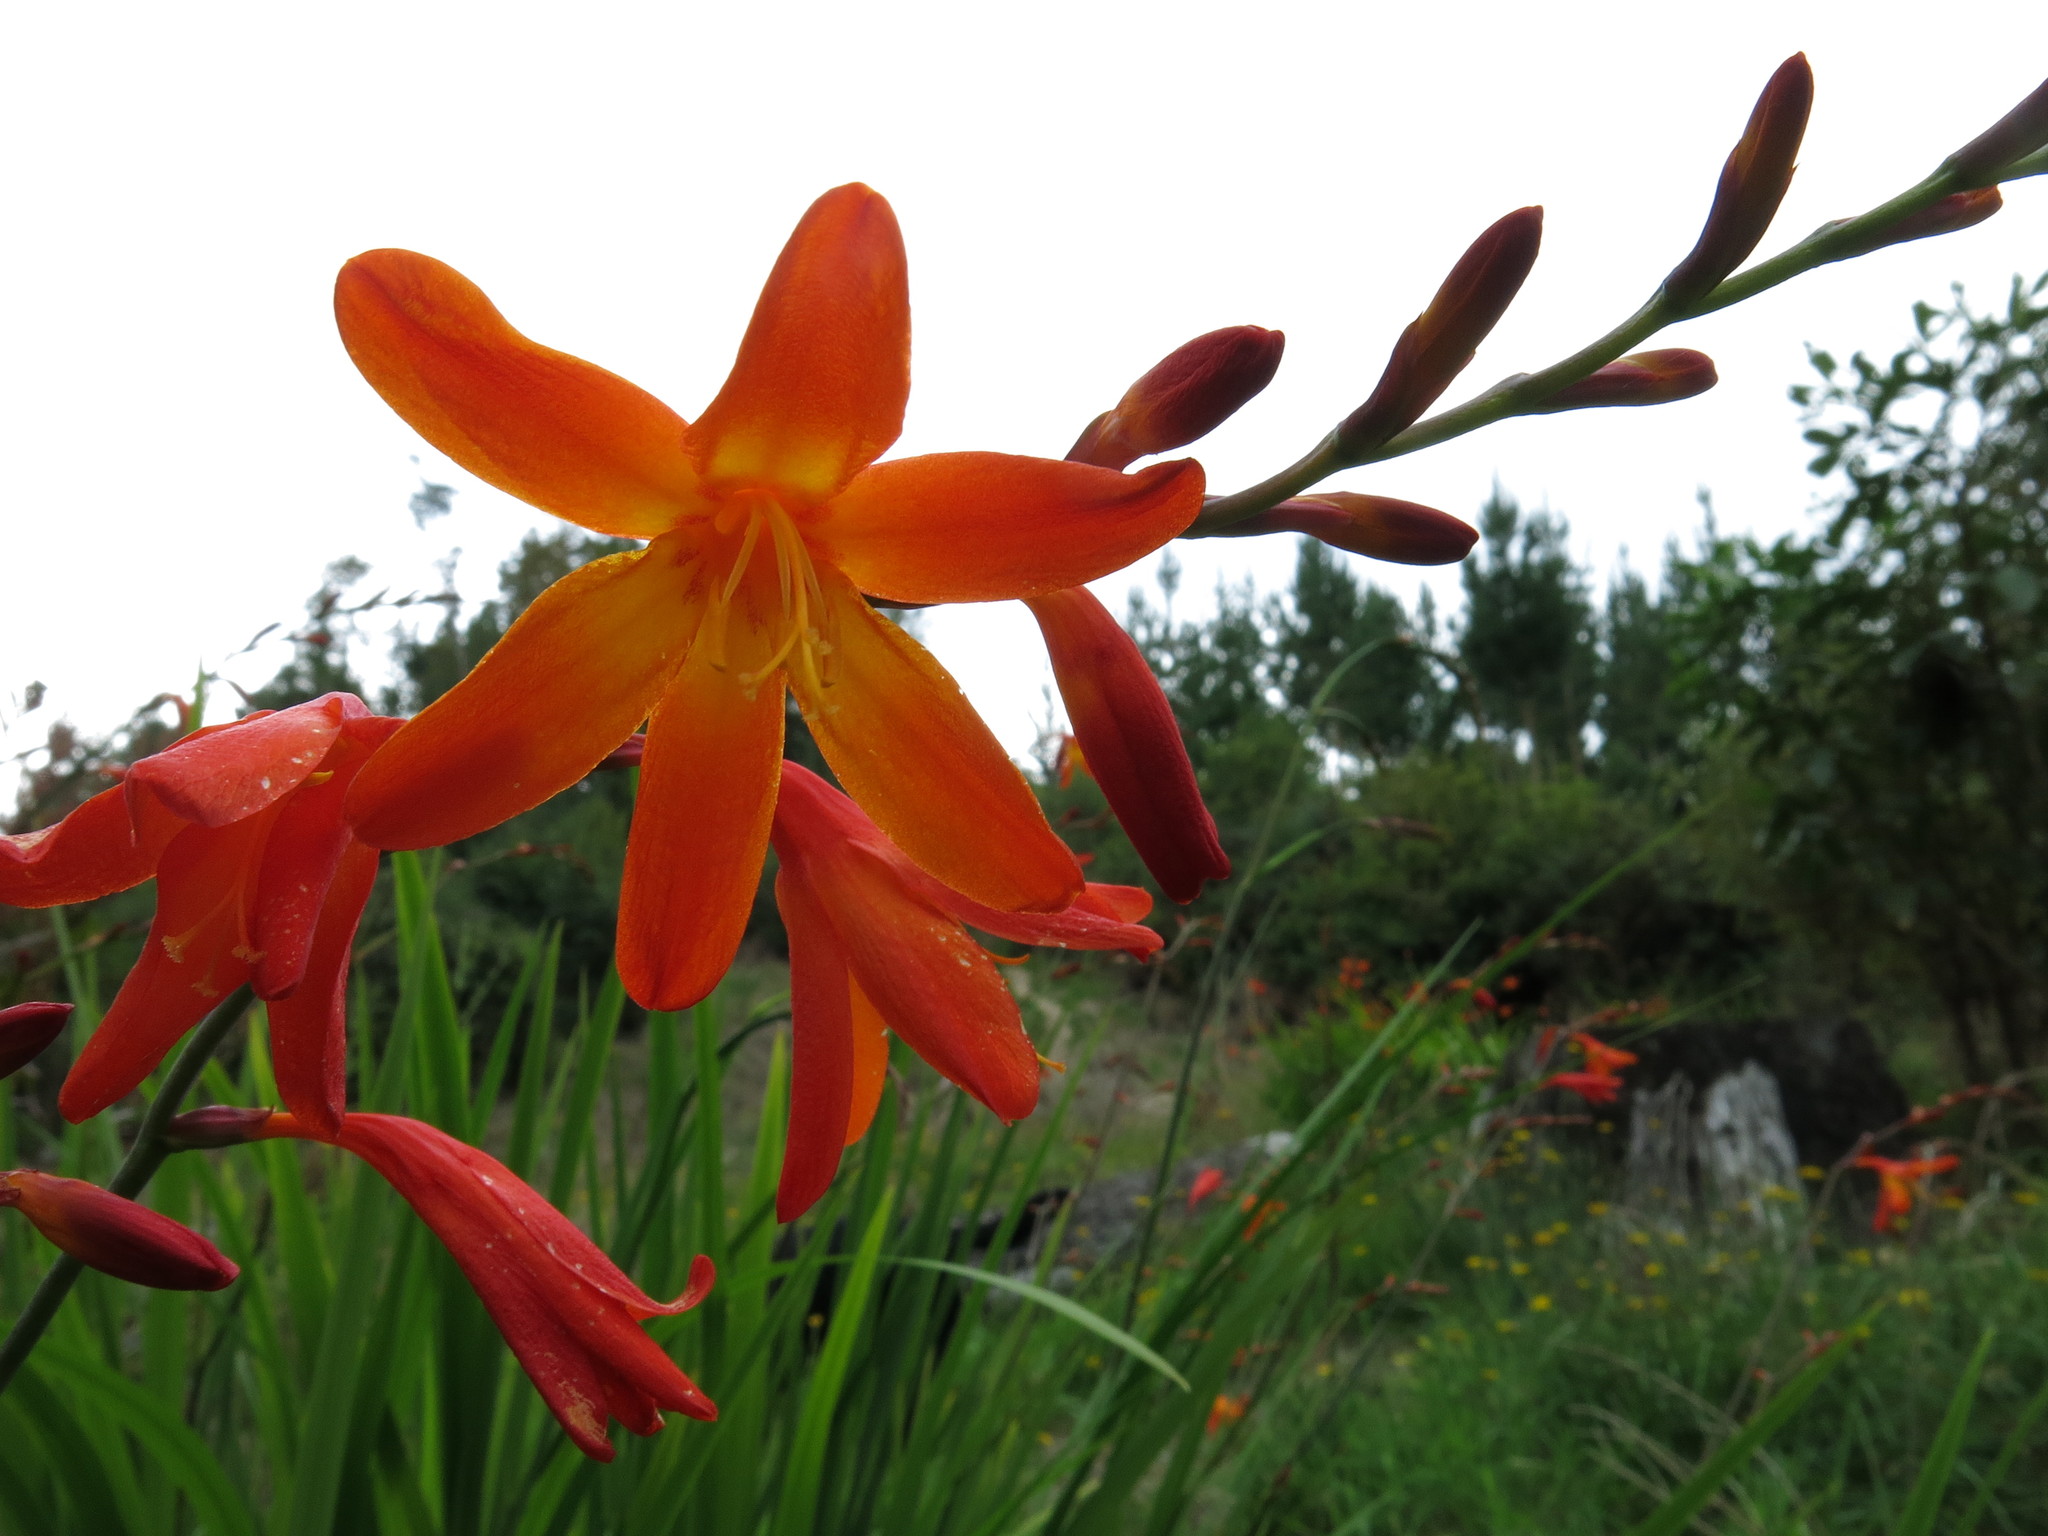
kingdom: Plantae
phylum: Tracheophyta
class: Liliopsida
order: Asparagales
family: Iridaceae
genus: Crocosmia
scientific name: Crocosmia crocosmiiflora
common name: Montbretia
